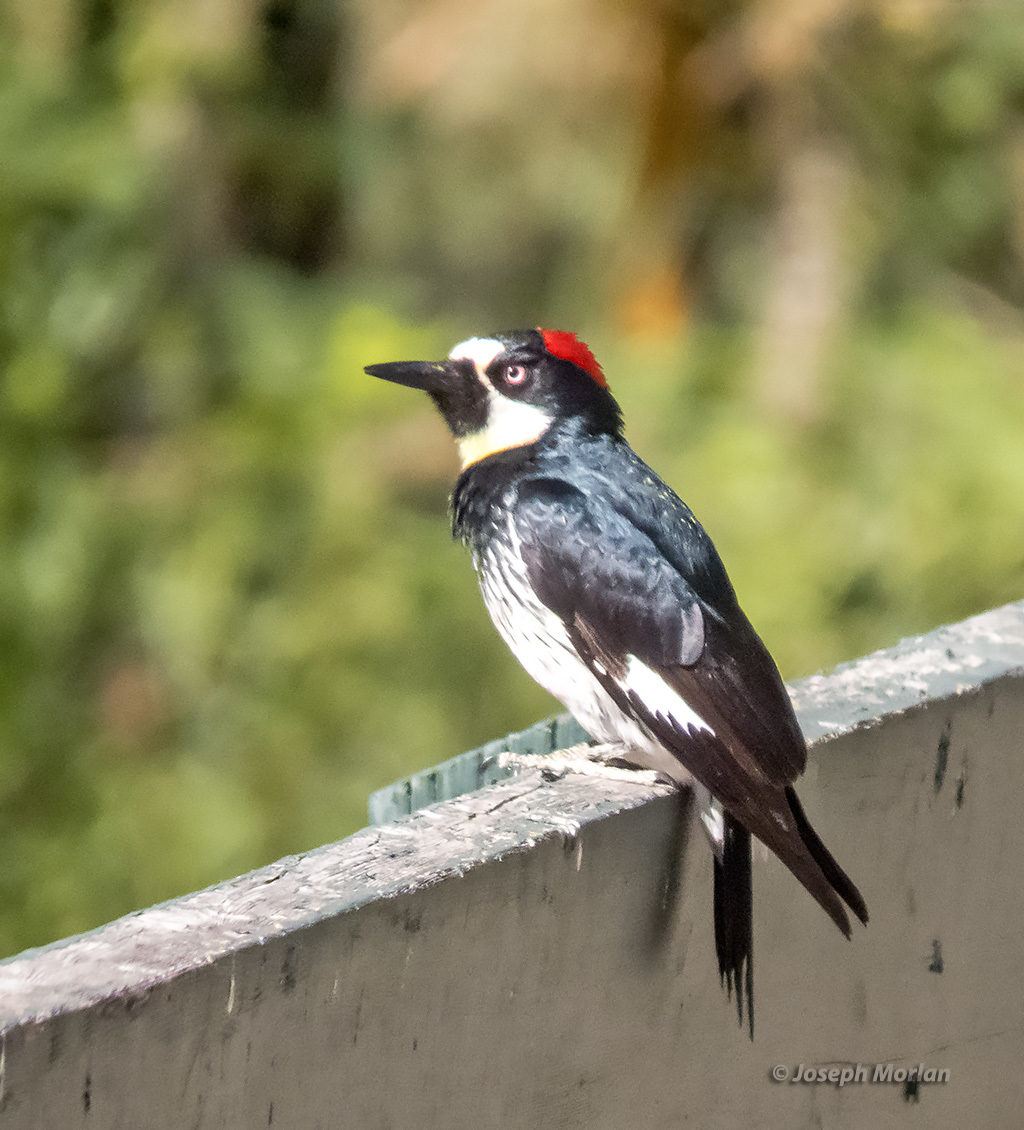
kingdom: Animalia
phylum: Chordata
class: Aves
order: Piciformes
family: Picidae
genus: Melanerpes
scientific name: Melanerpes formicivorus
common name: Acorn woodpecker
